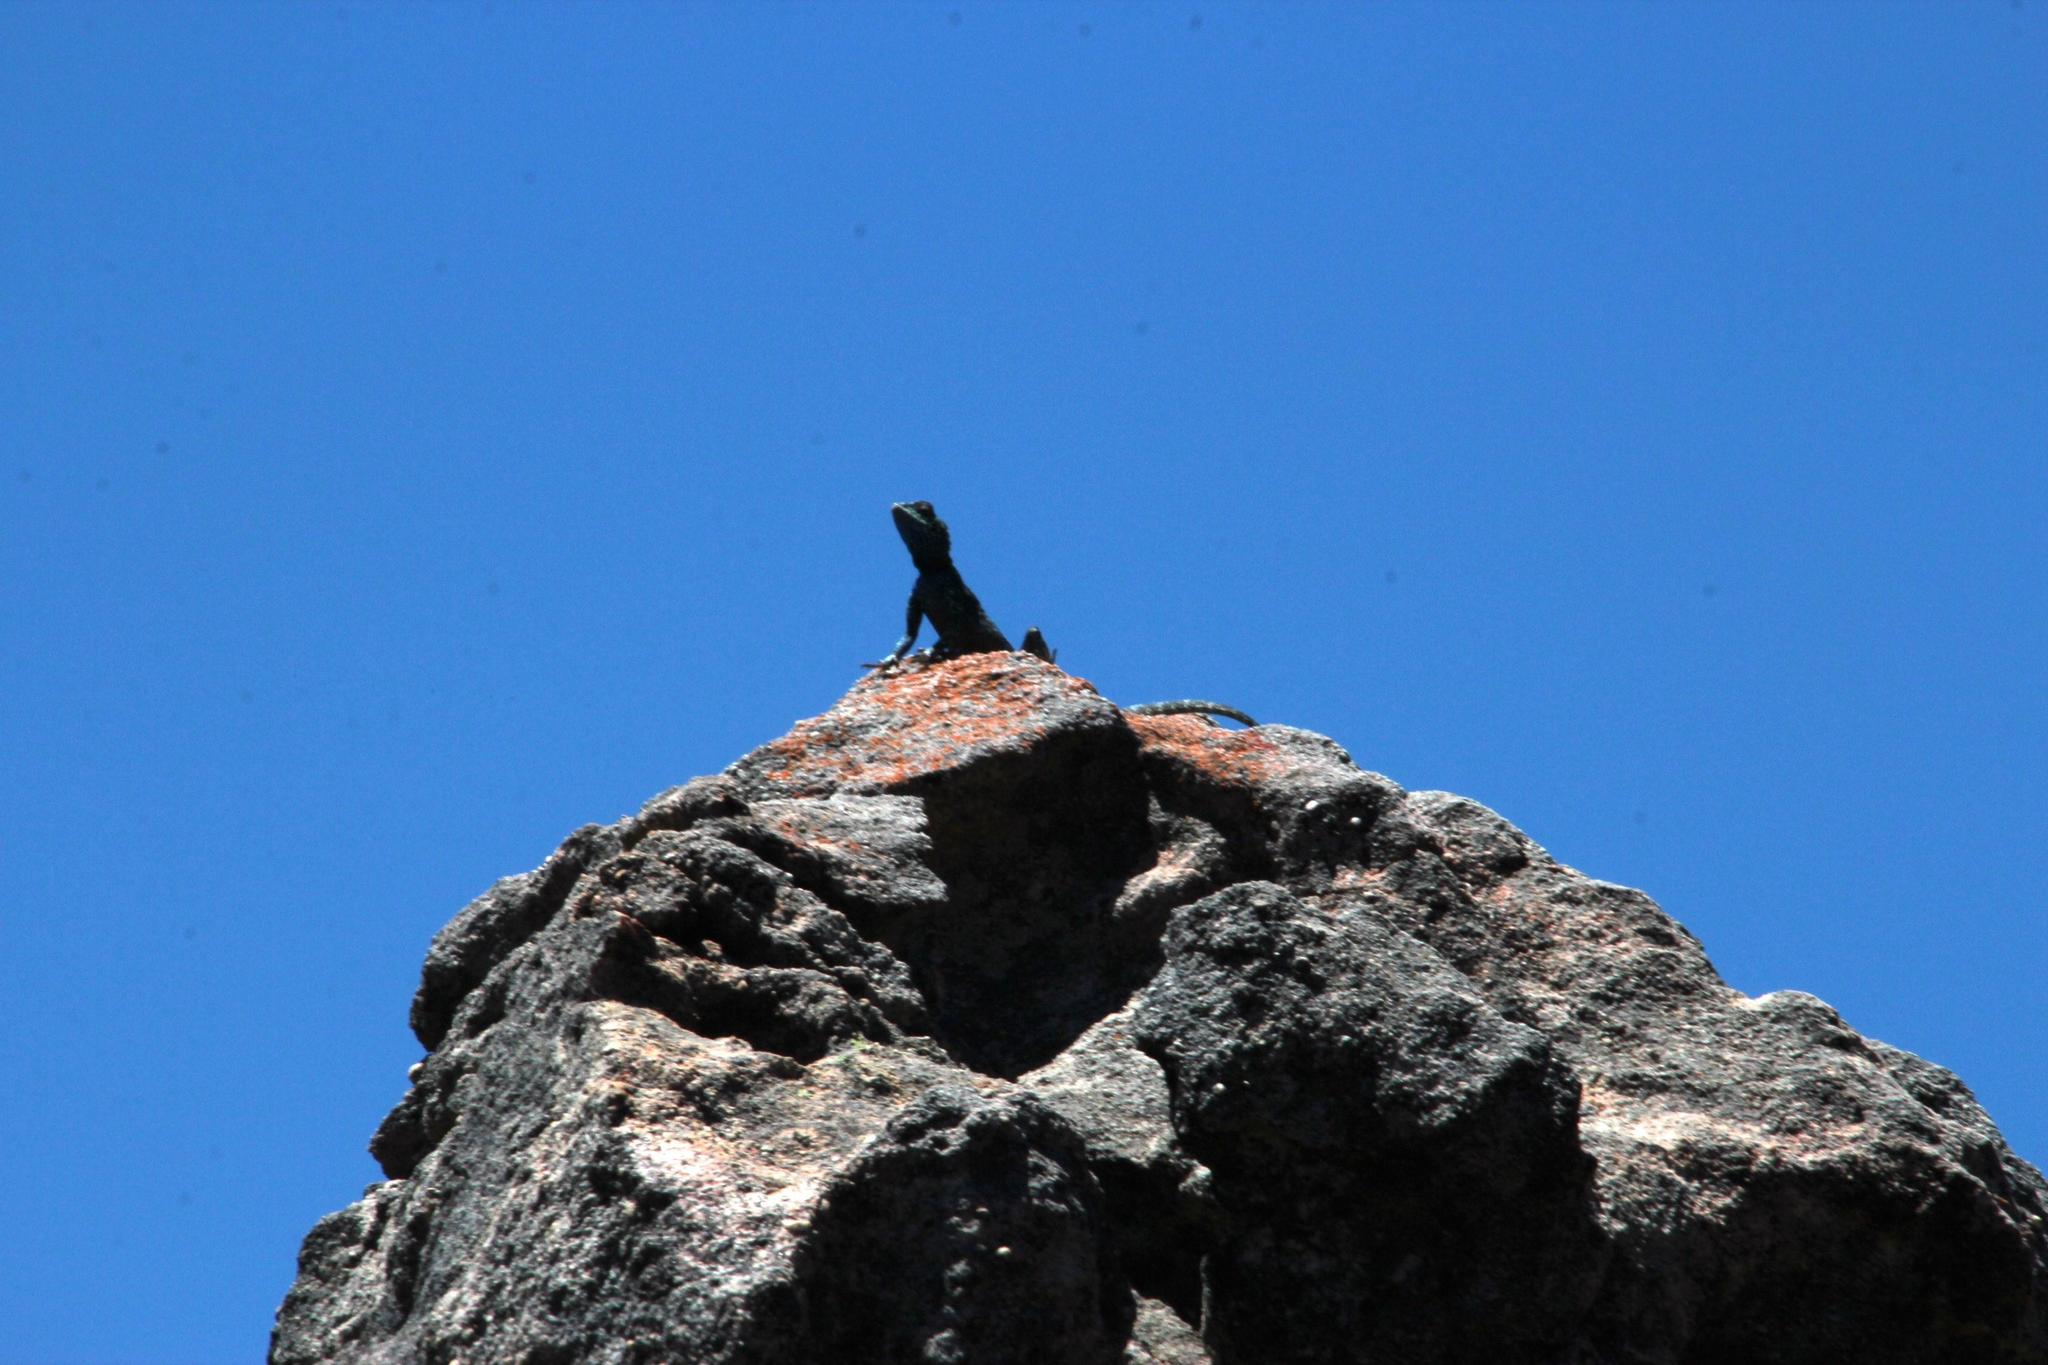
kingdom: Animalia
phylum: Chordata
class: Squamata
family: Agamidae
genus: Agama
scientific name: Agama atra
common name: Southern african rock agama
